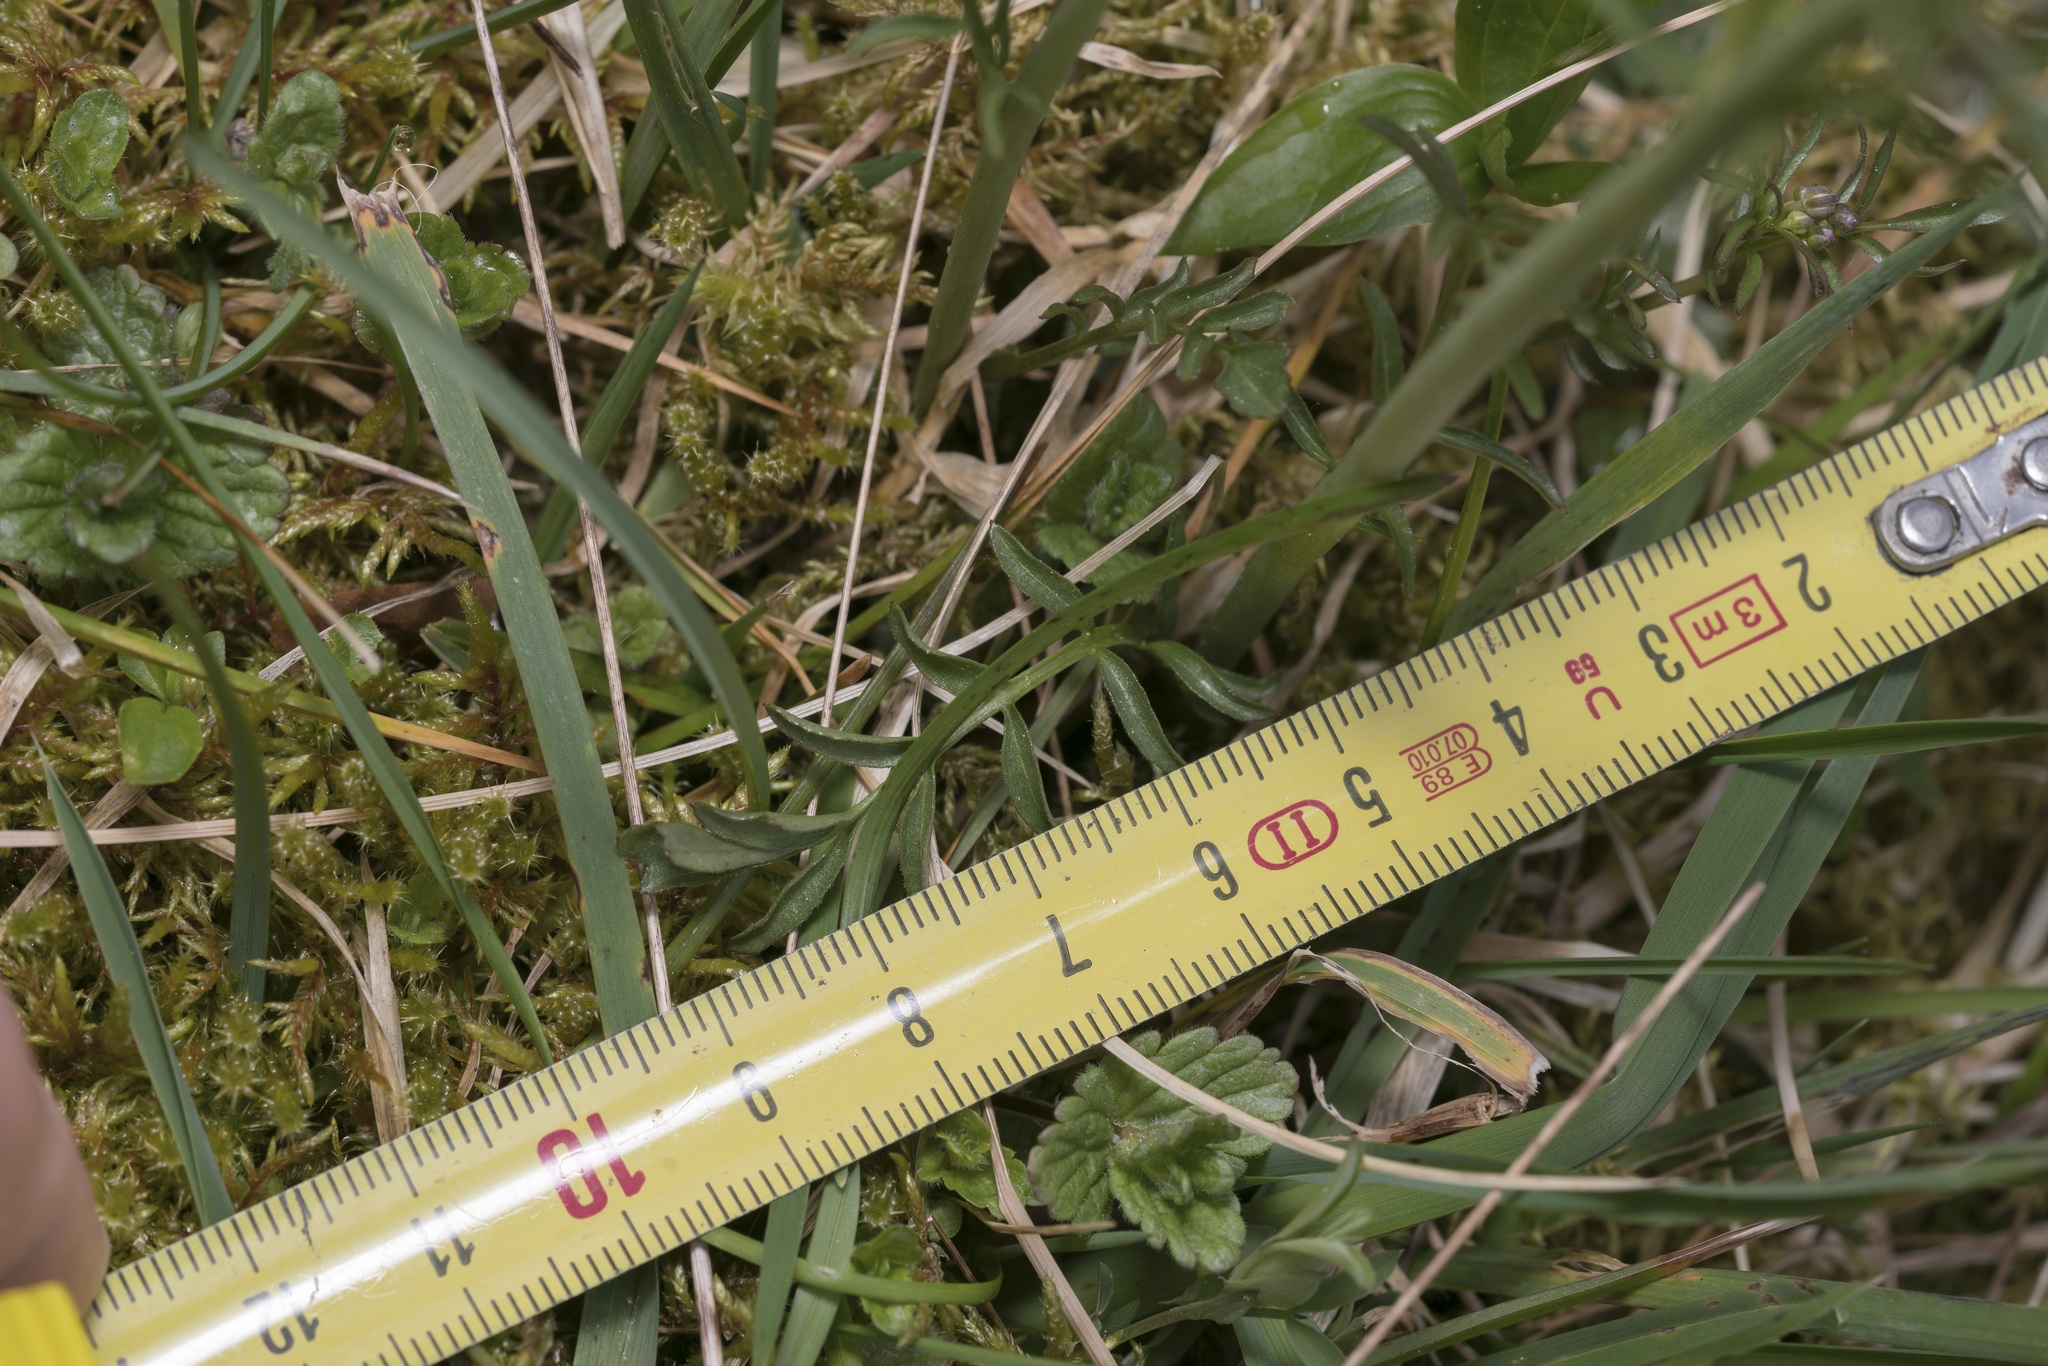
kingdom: Plantae
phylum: Tracheophyta
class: Magnoliopsida
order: Brassicales
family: Brassicaceae
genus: Cardamine
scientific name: Cardamine pratensis
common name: Cuckoo flower
